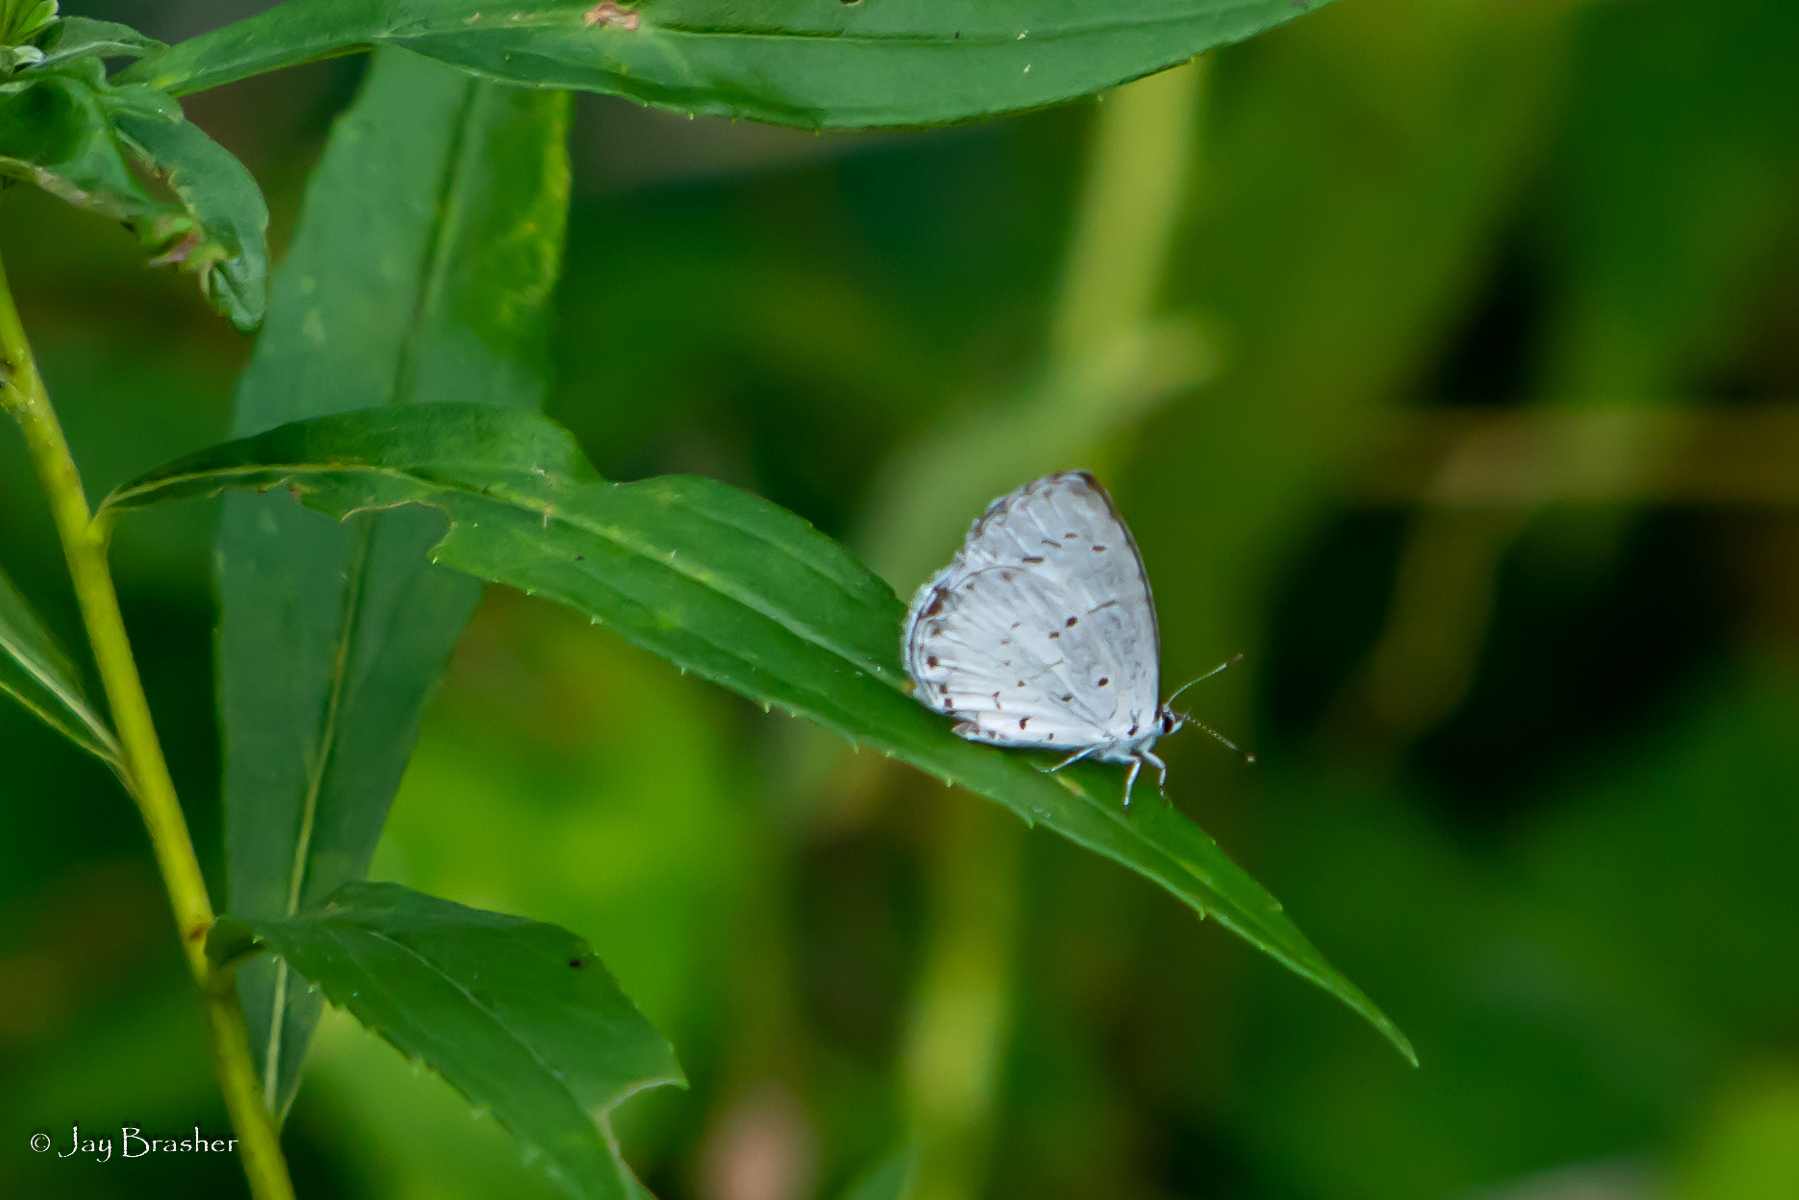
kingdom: Animalia
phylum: Arthropoda
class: Insecta
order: Lepidoptera
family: Lycaenidae
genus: Cyaniris
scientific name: Cyaniris neglecta
